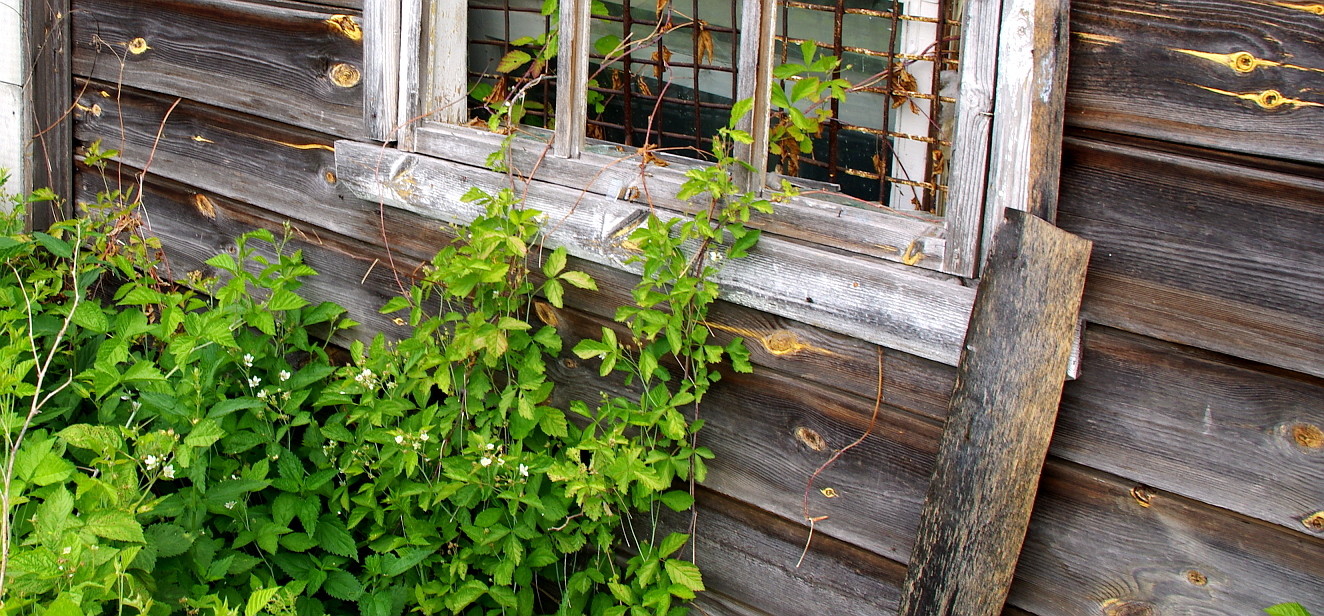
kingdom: Plantae
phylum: Tracheophyta
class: Magnoliopsida
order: Rosales
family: Rosaceae
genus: Rubus
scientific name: Rubus caesius
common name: Dewberry
